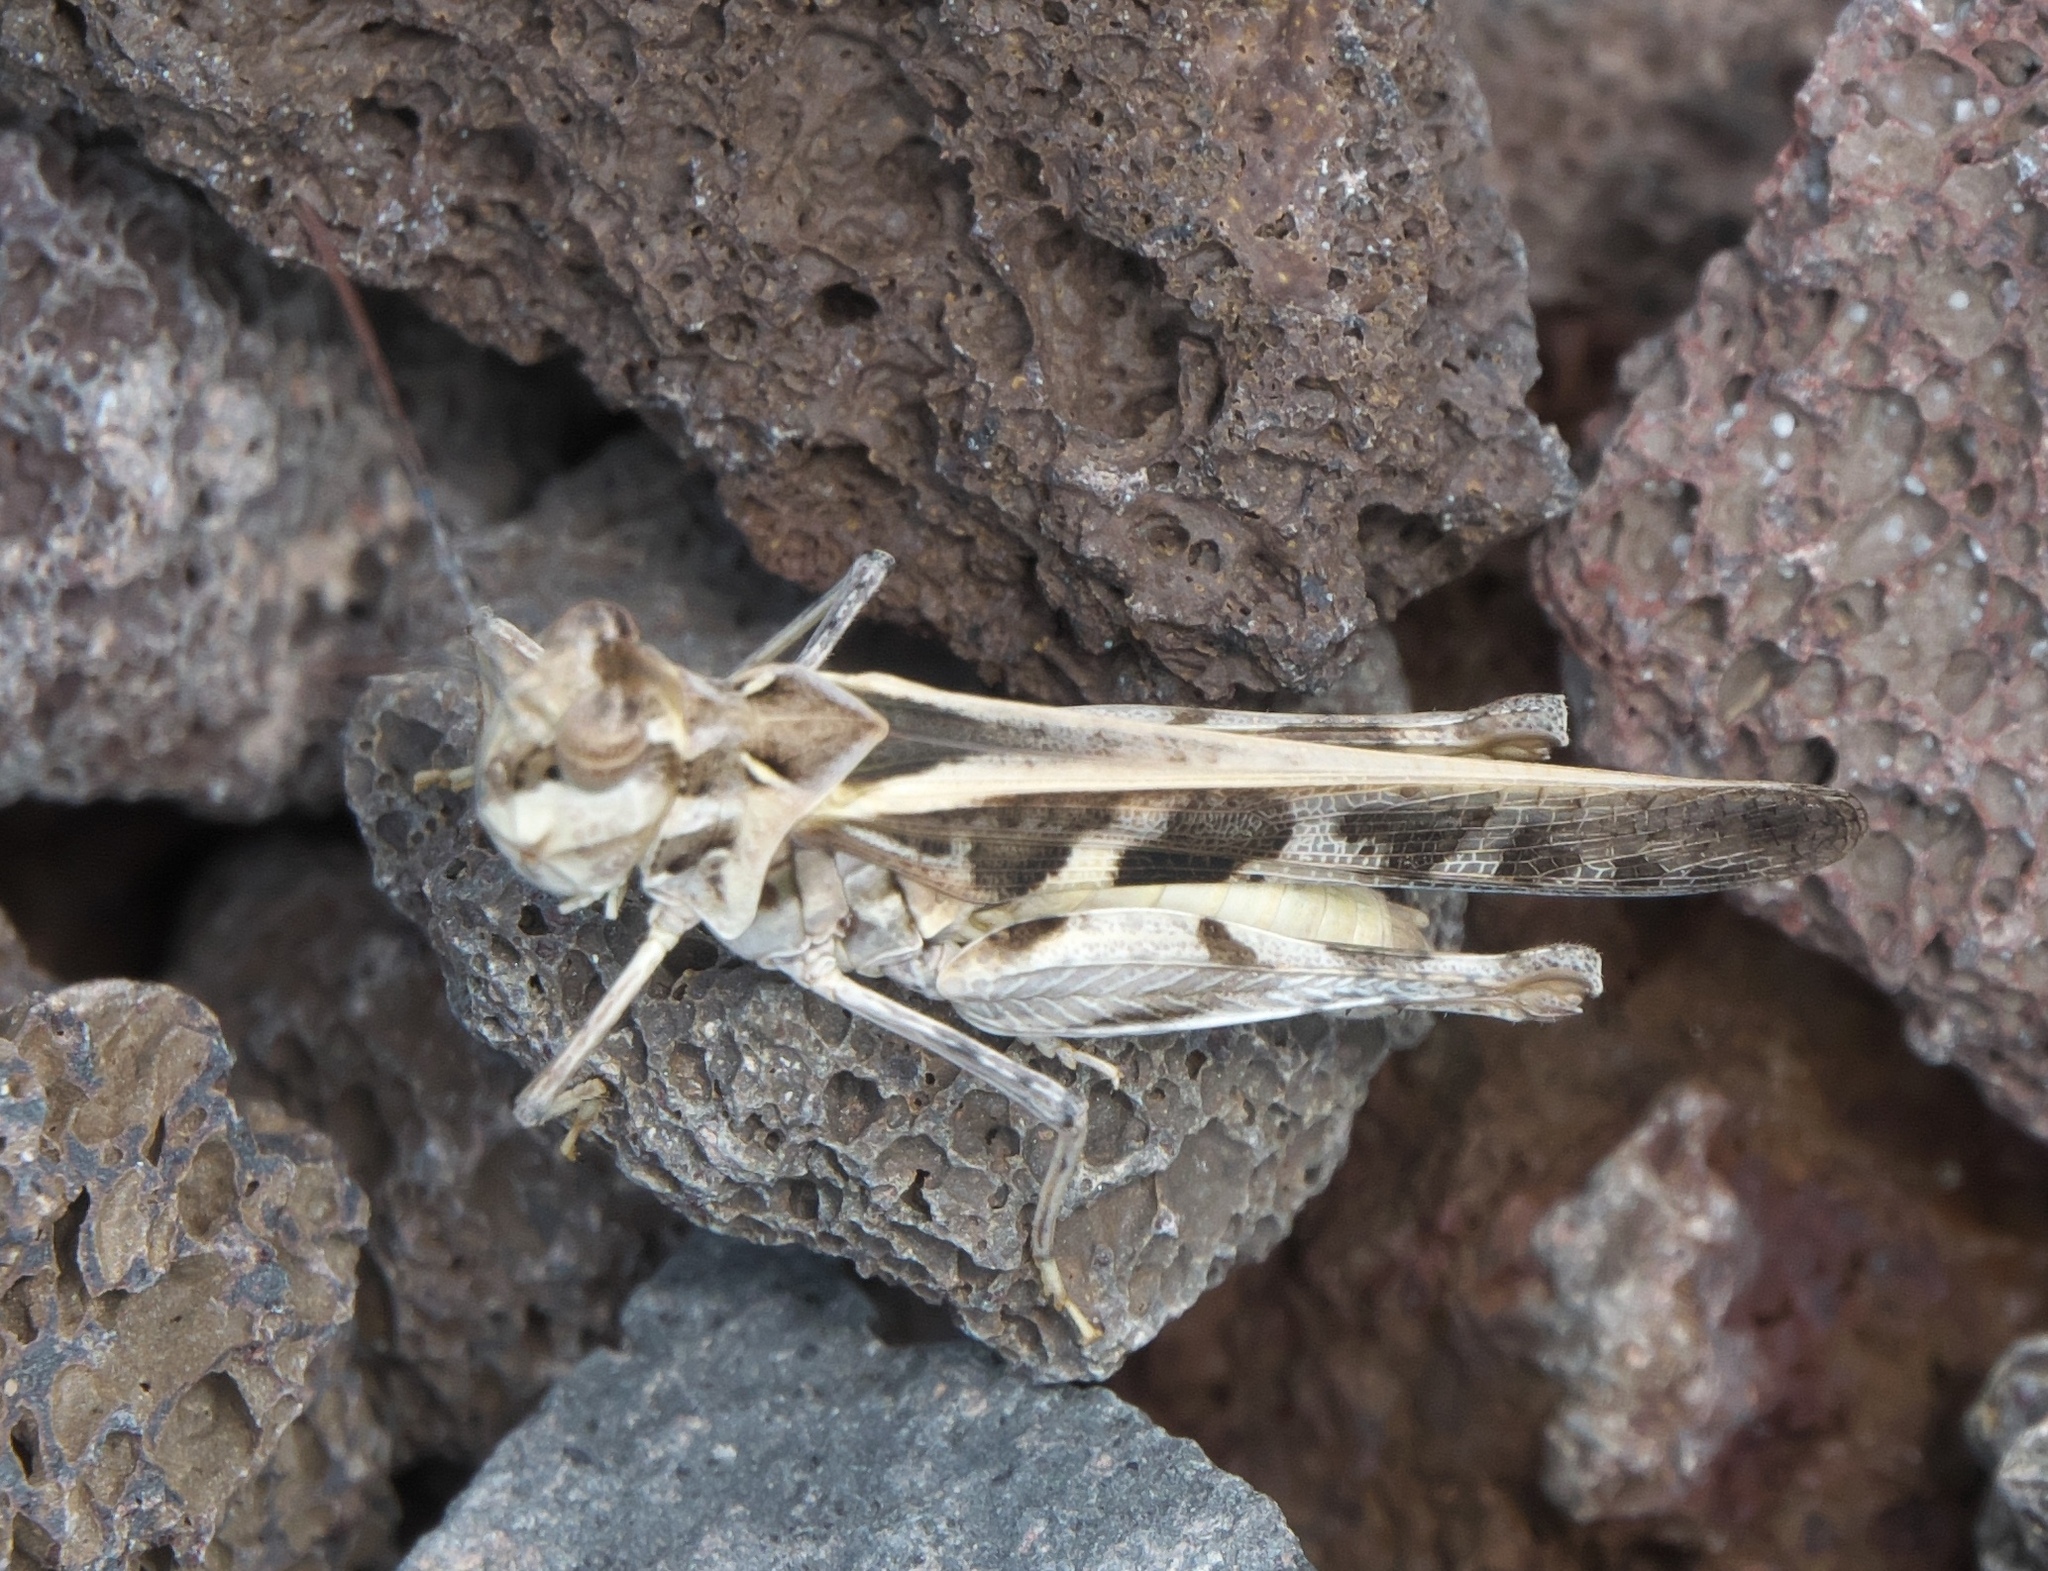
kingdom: Animalia
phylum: Arthropoda
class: Insecta
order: Orthoptera
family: Acrididae
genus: Hippopedon
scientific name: Hippopedon capito
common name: Apache grasshopper
